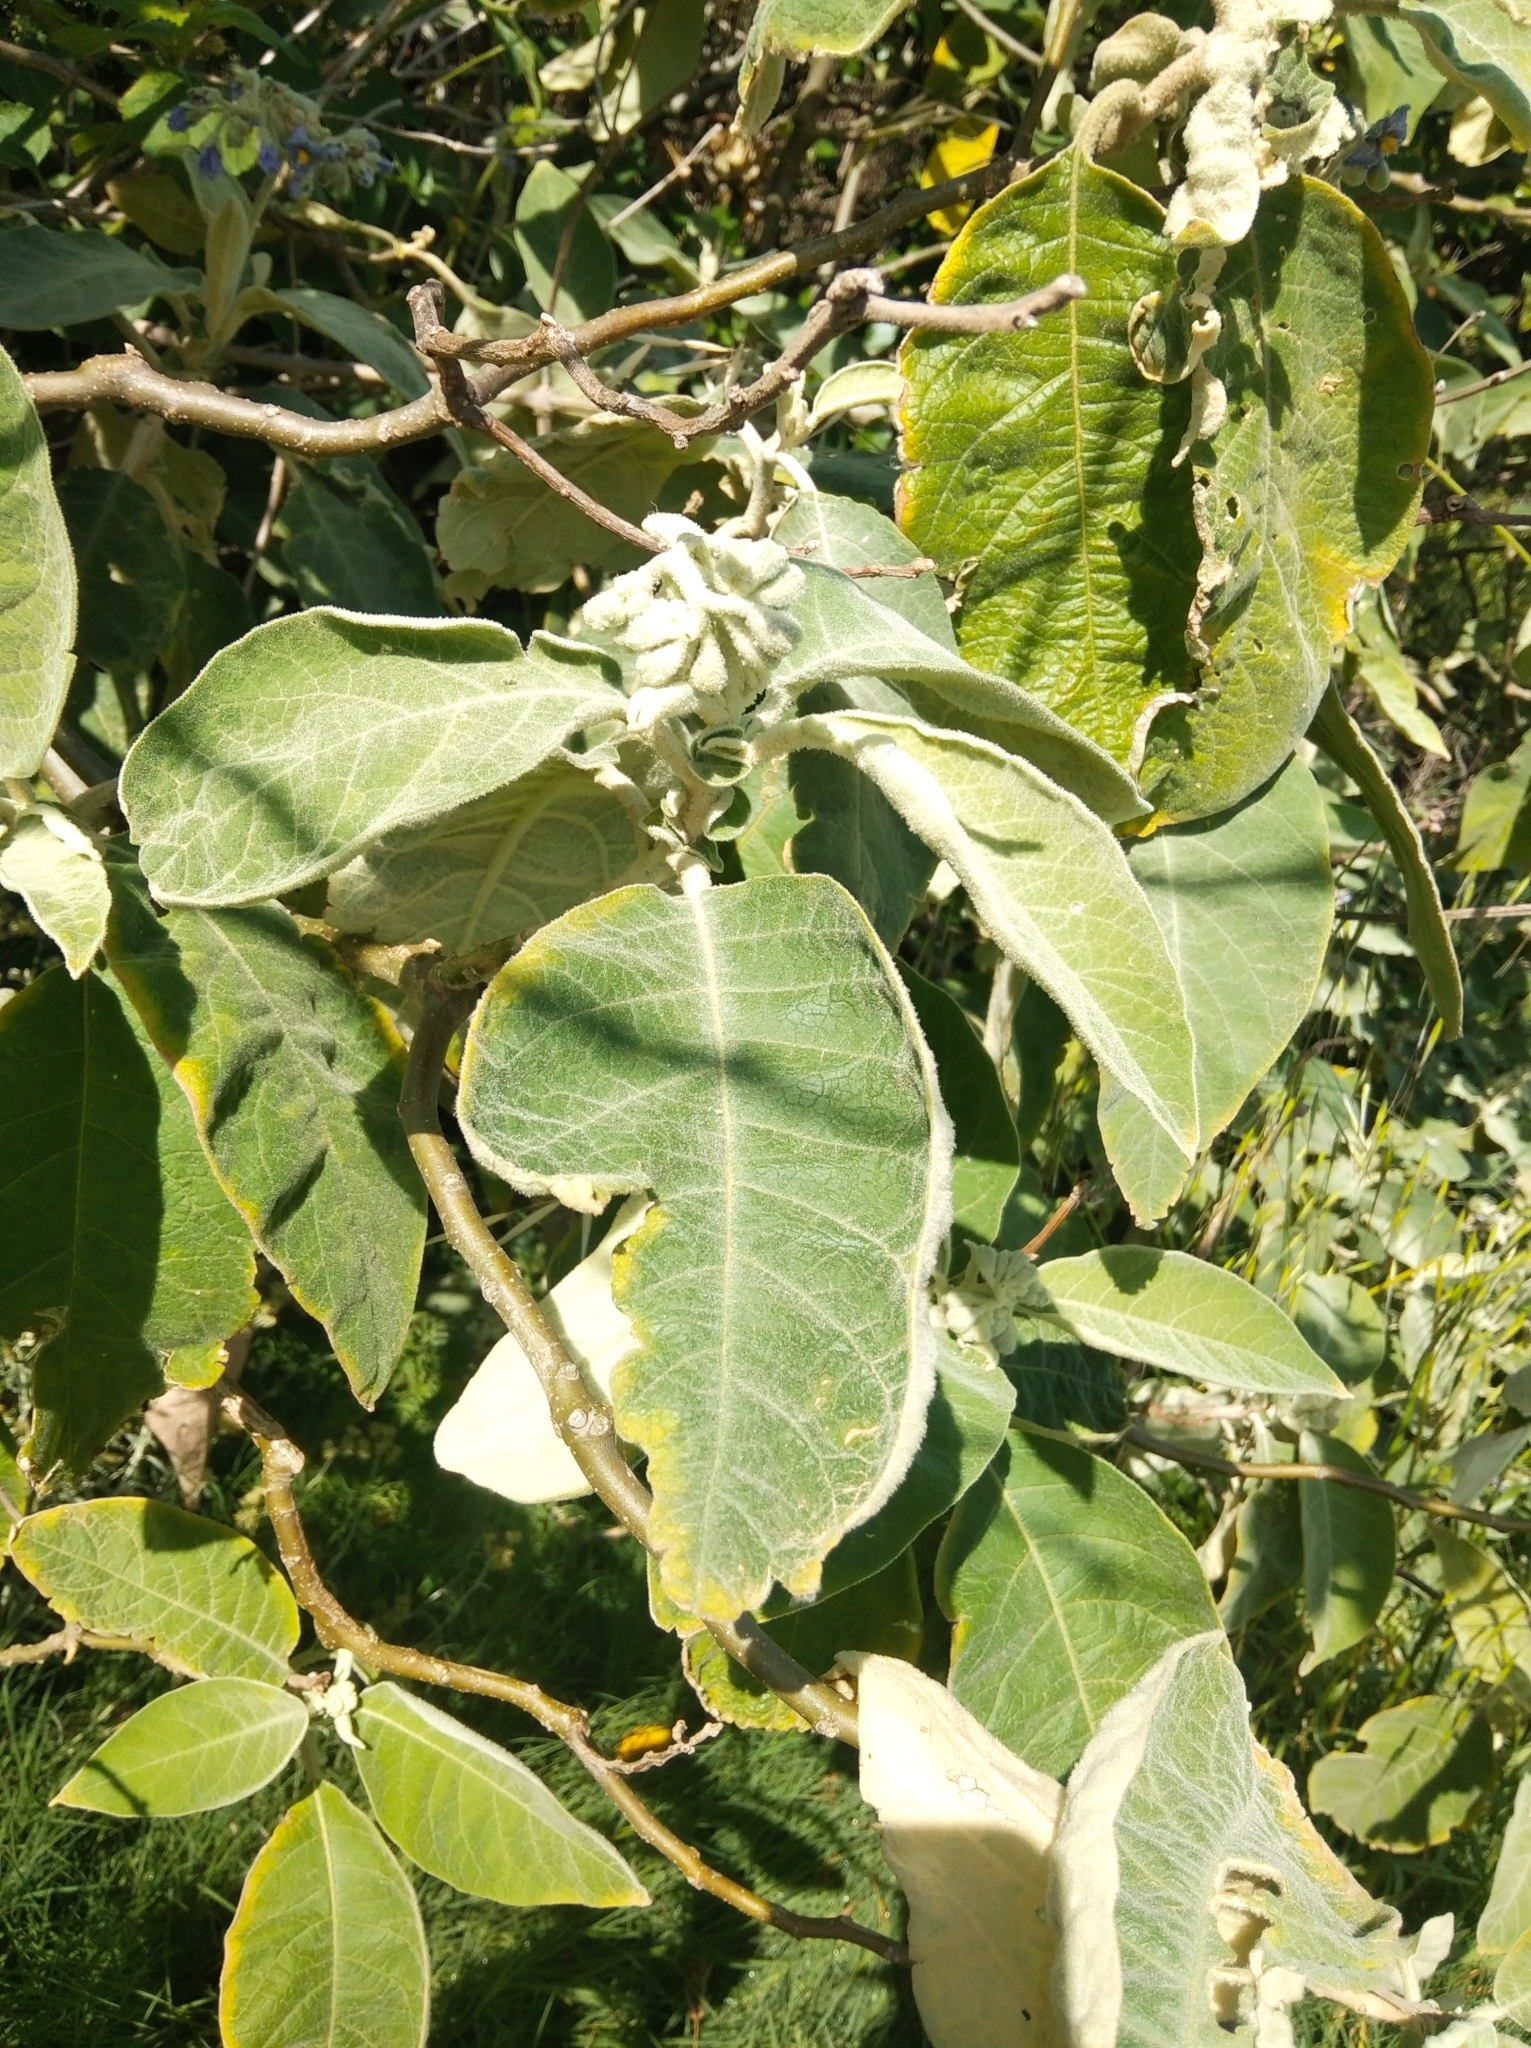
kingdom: Plantae
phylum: Tracheophyta
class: Magnoliopsida
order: Solanales
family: Solanaceae
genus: Solanum
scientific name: Solanum mauritianum
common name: Earleaf nightshade
